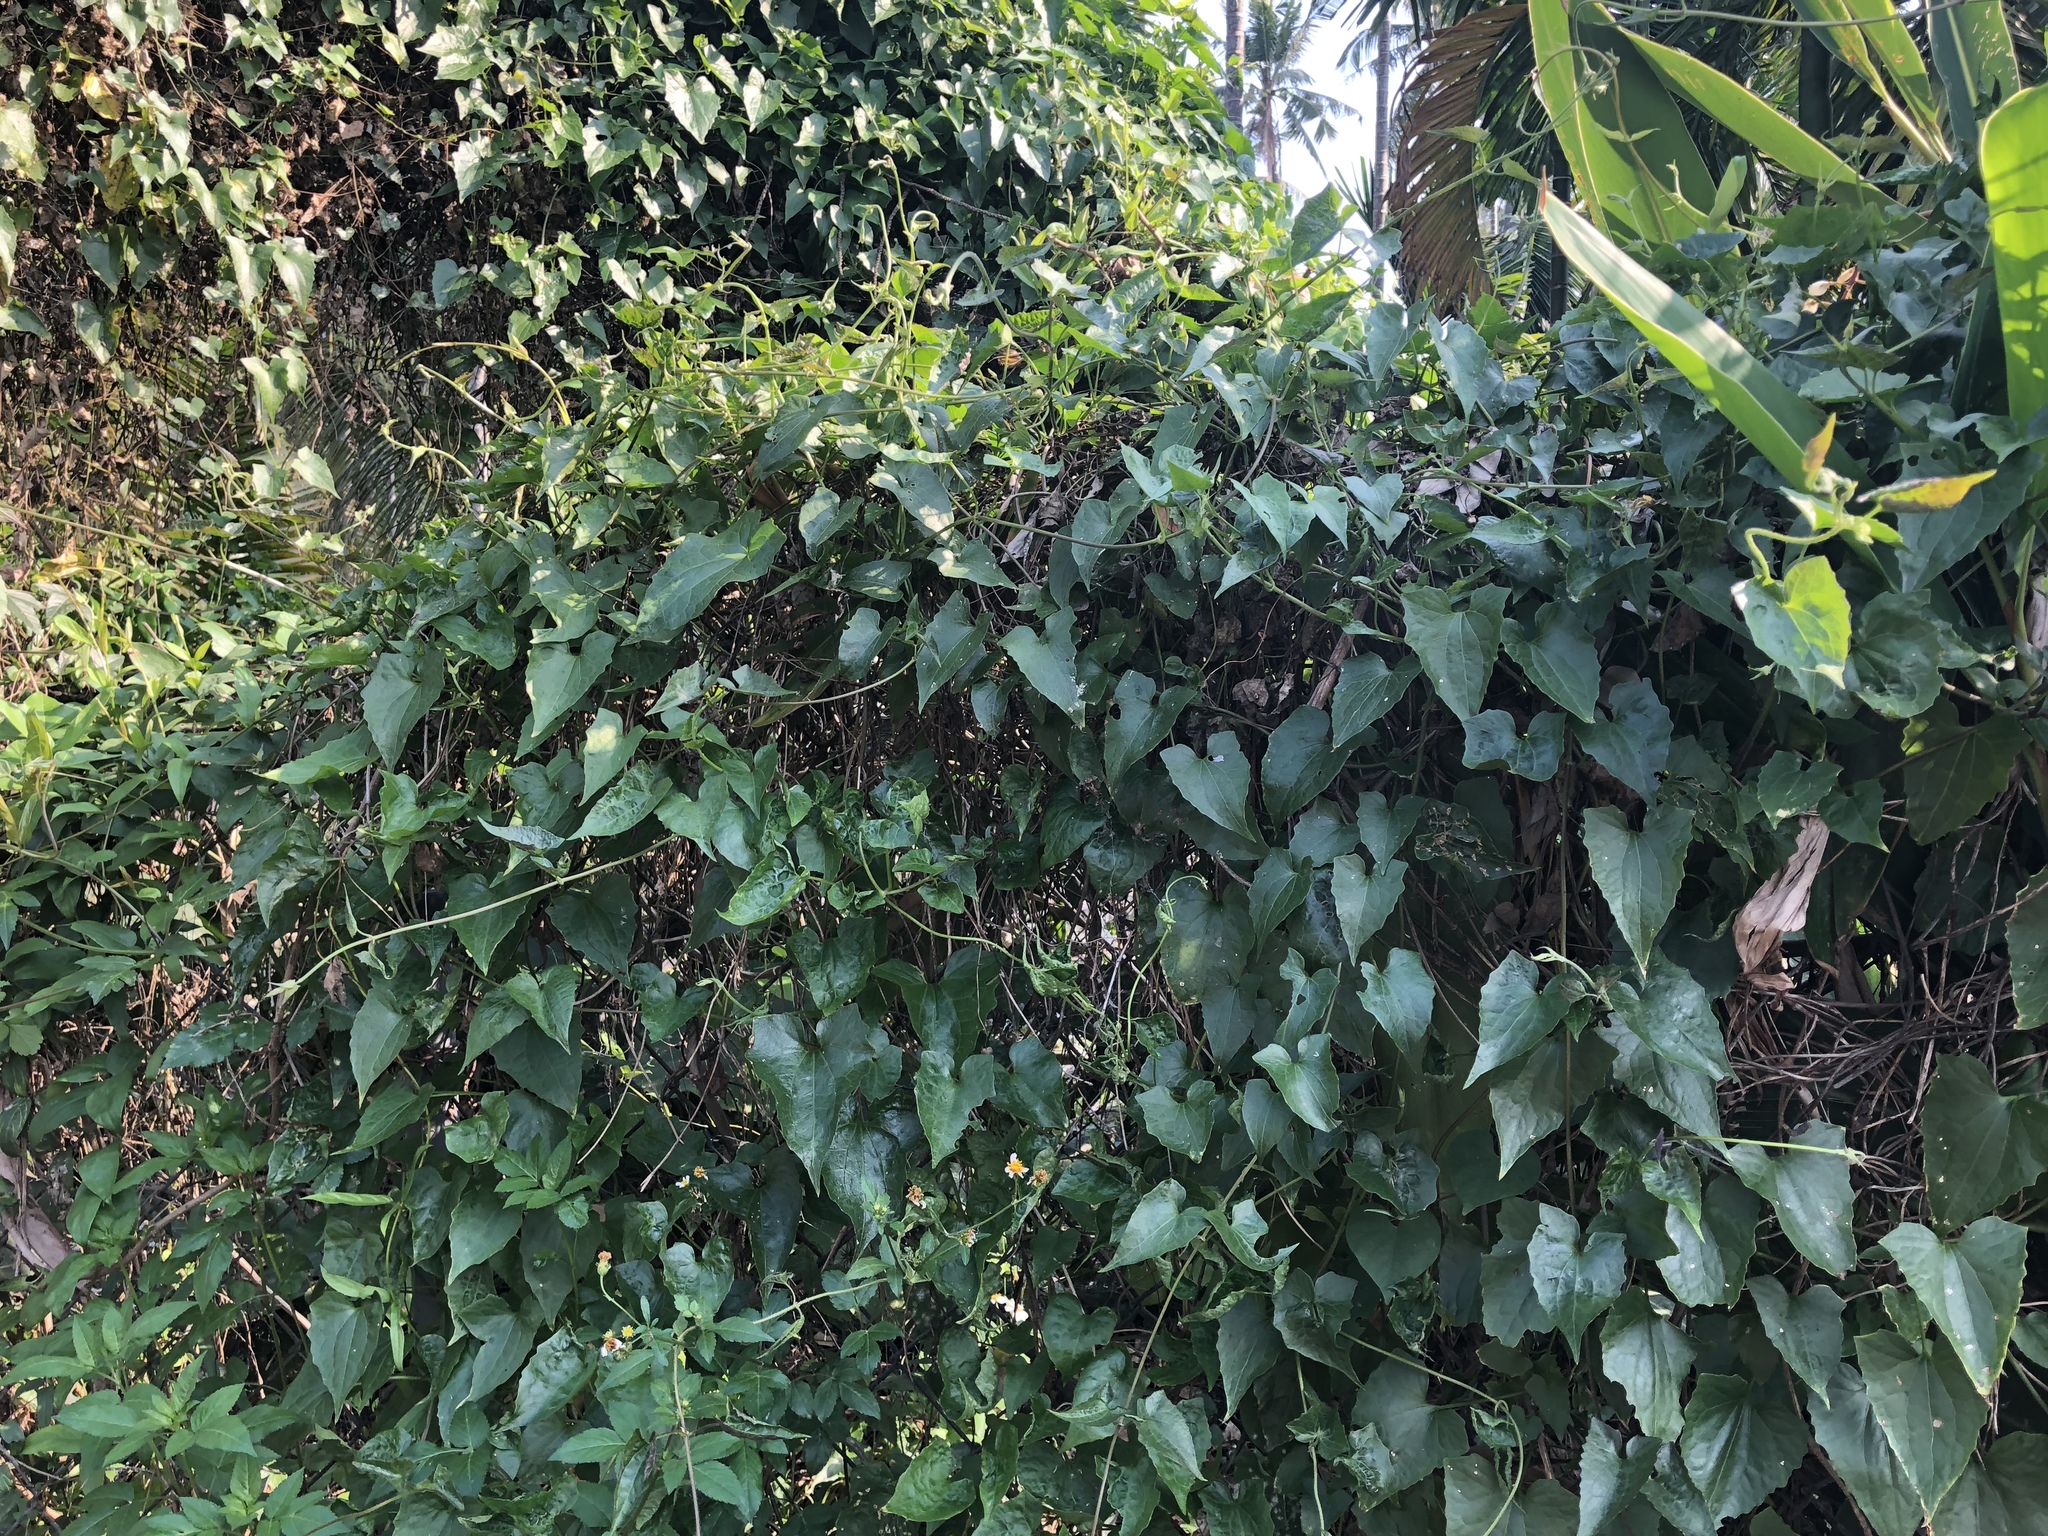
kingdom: Plantae
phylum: Tracheophyta
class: Magnoliopsida
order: Asterales
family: Asteraceae
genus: Mikania
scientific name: Mikania micrantha
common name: Mile-a-minute
